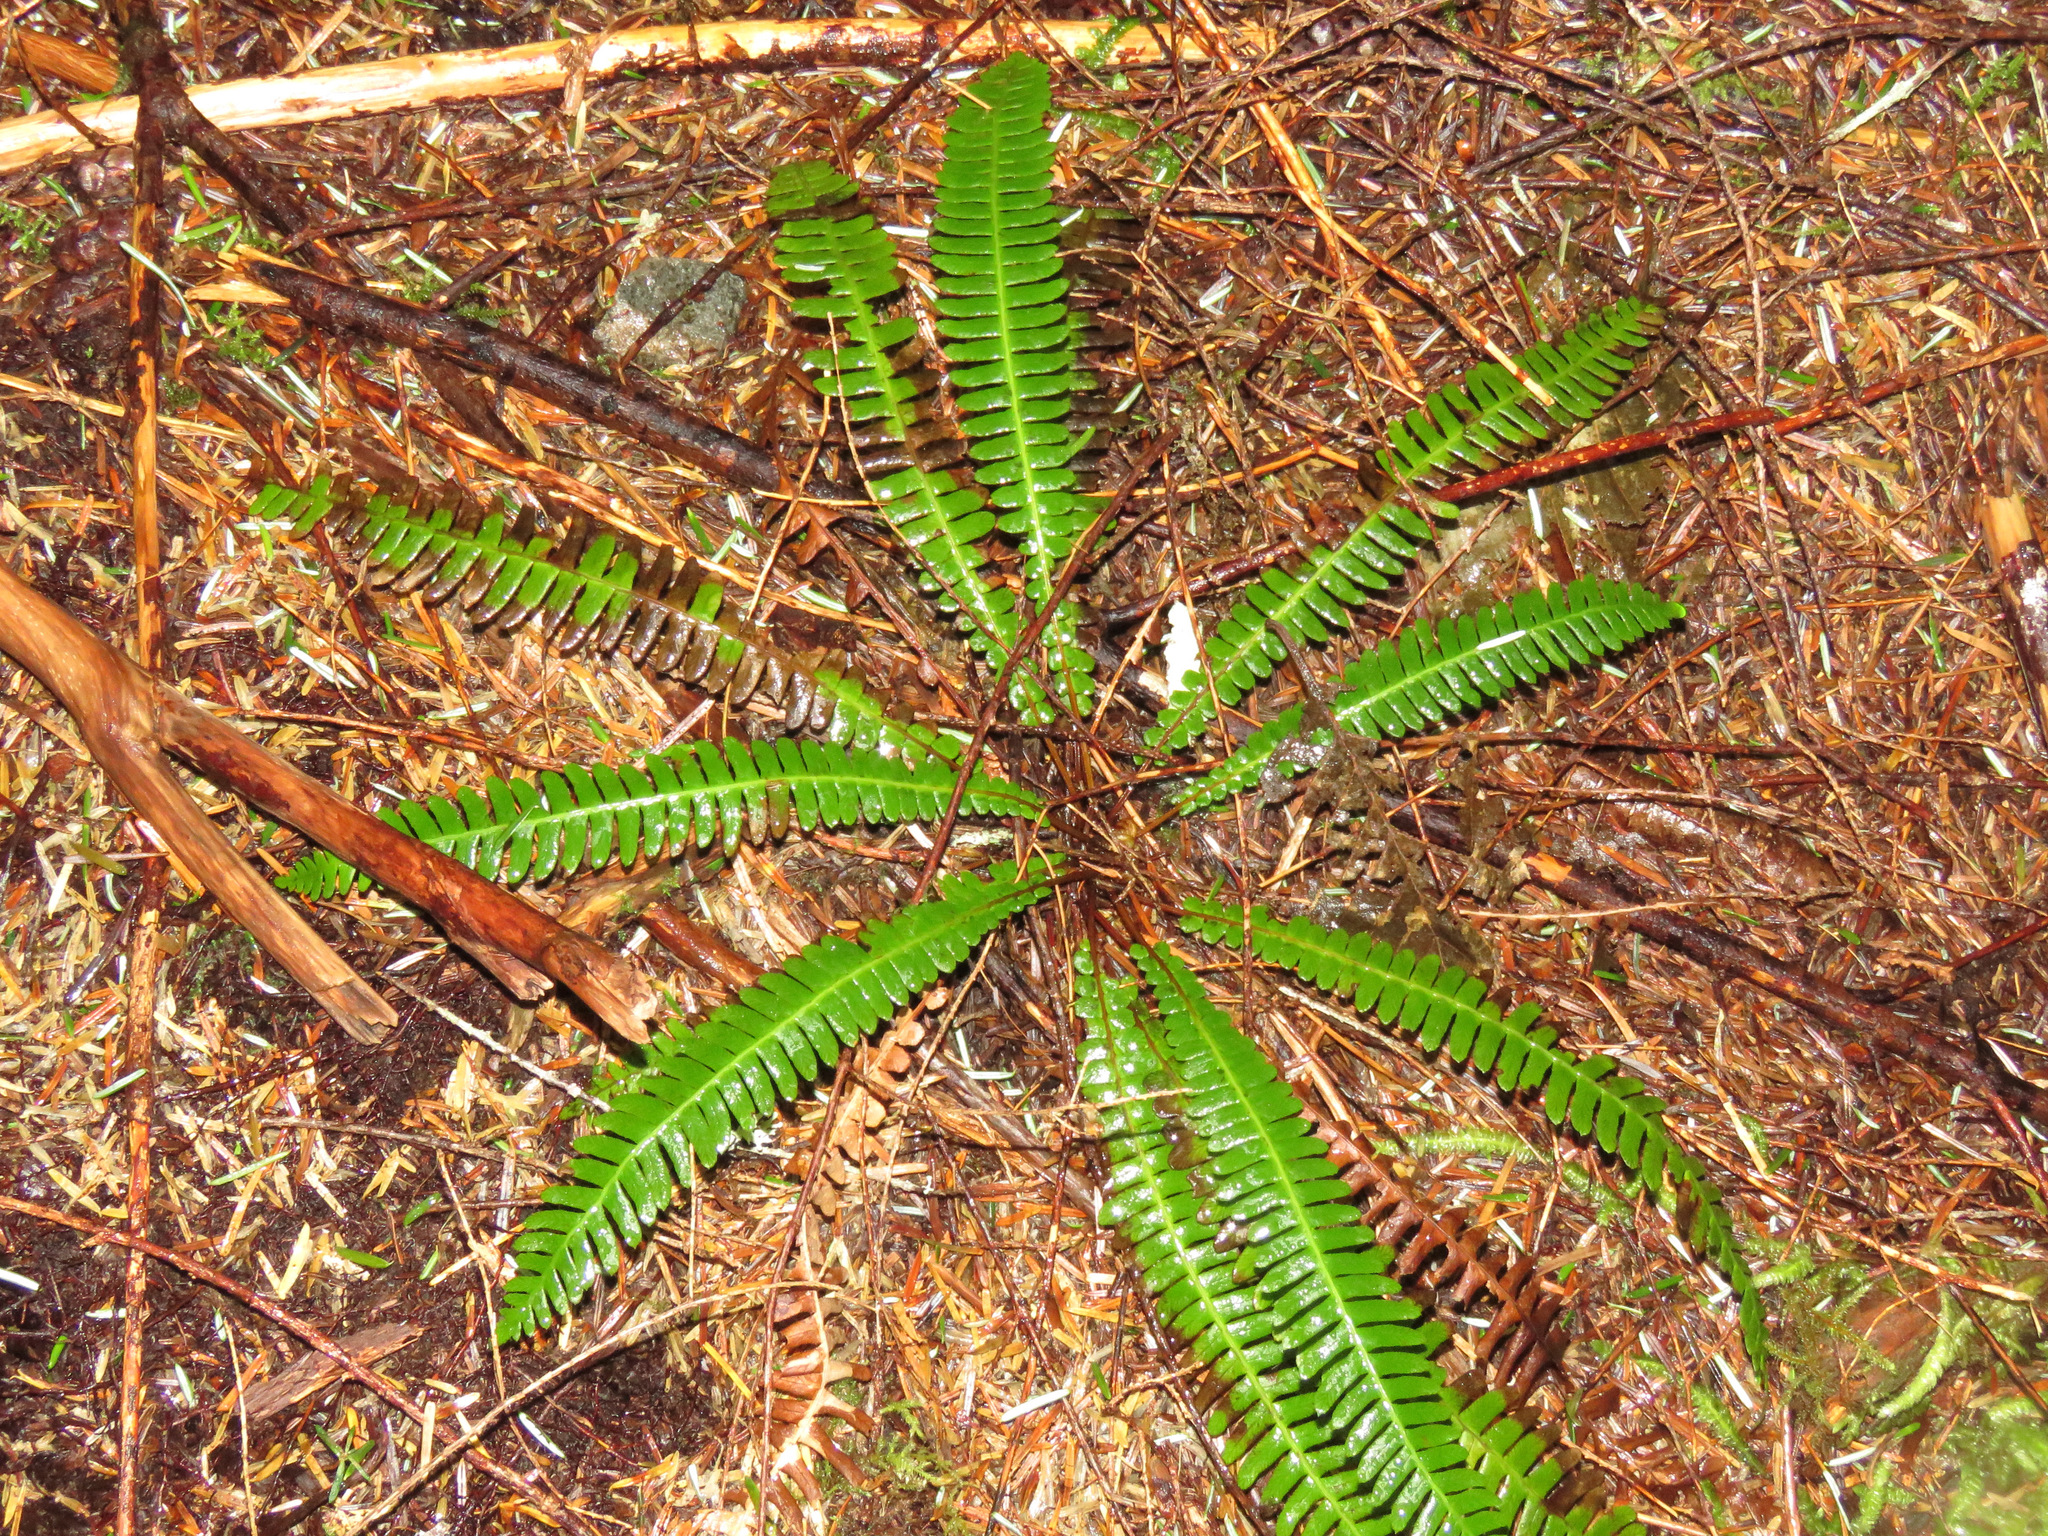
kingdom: Plantae
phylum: Tracheophyta
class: Polypodiopsida
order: Polypodiales
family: Blechnaceae
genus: Struthiopteris
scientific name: Struthiopteris spicant
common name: Deer fern
